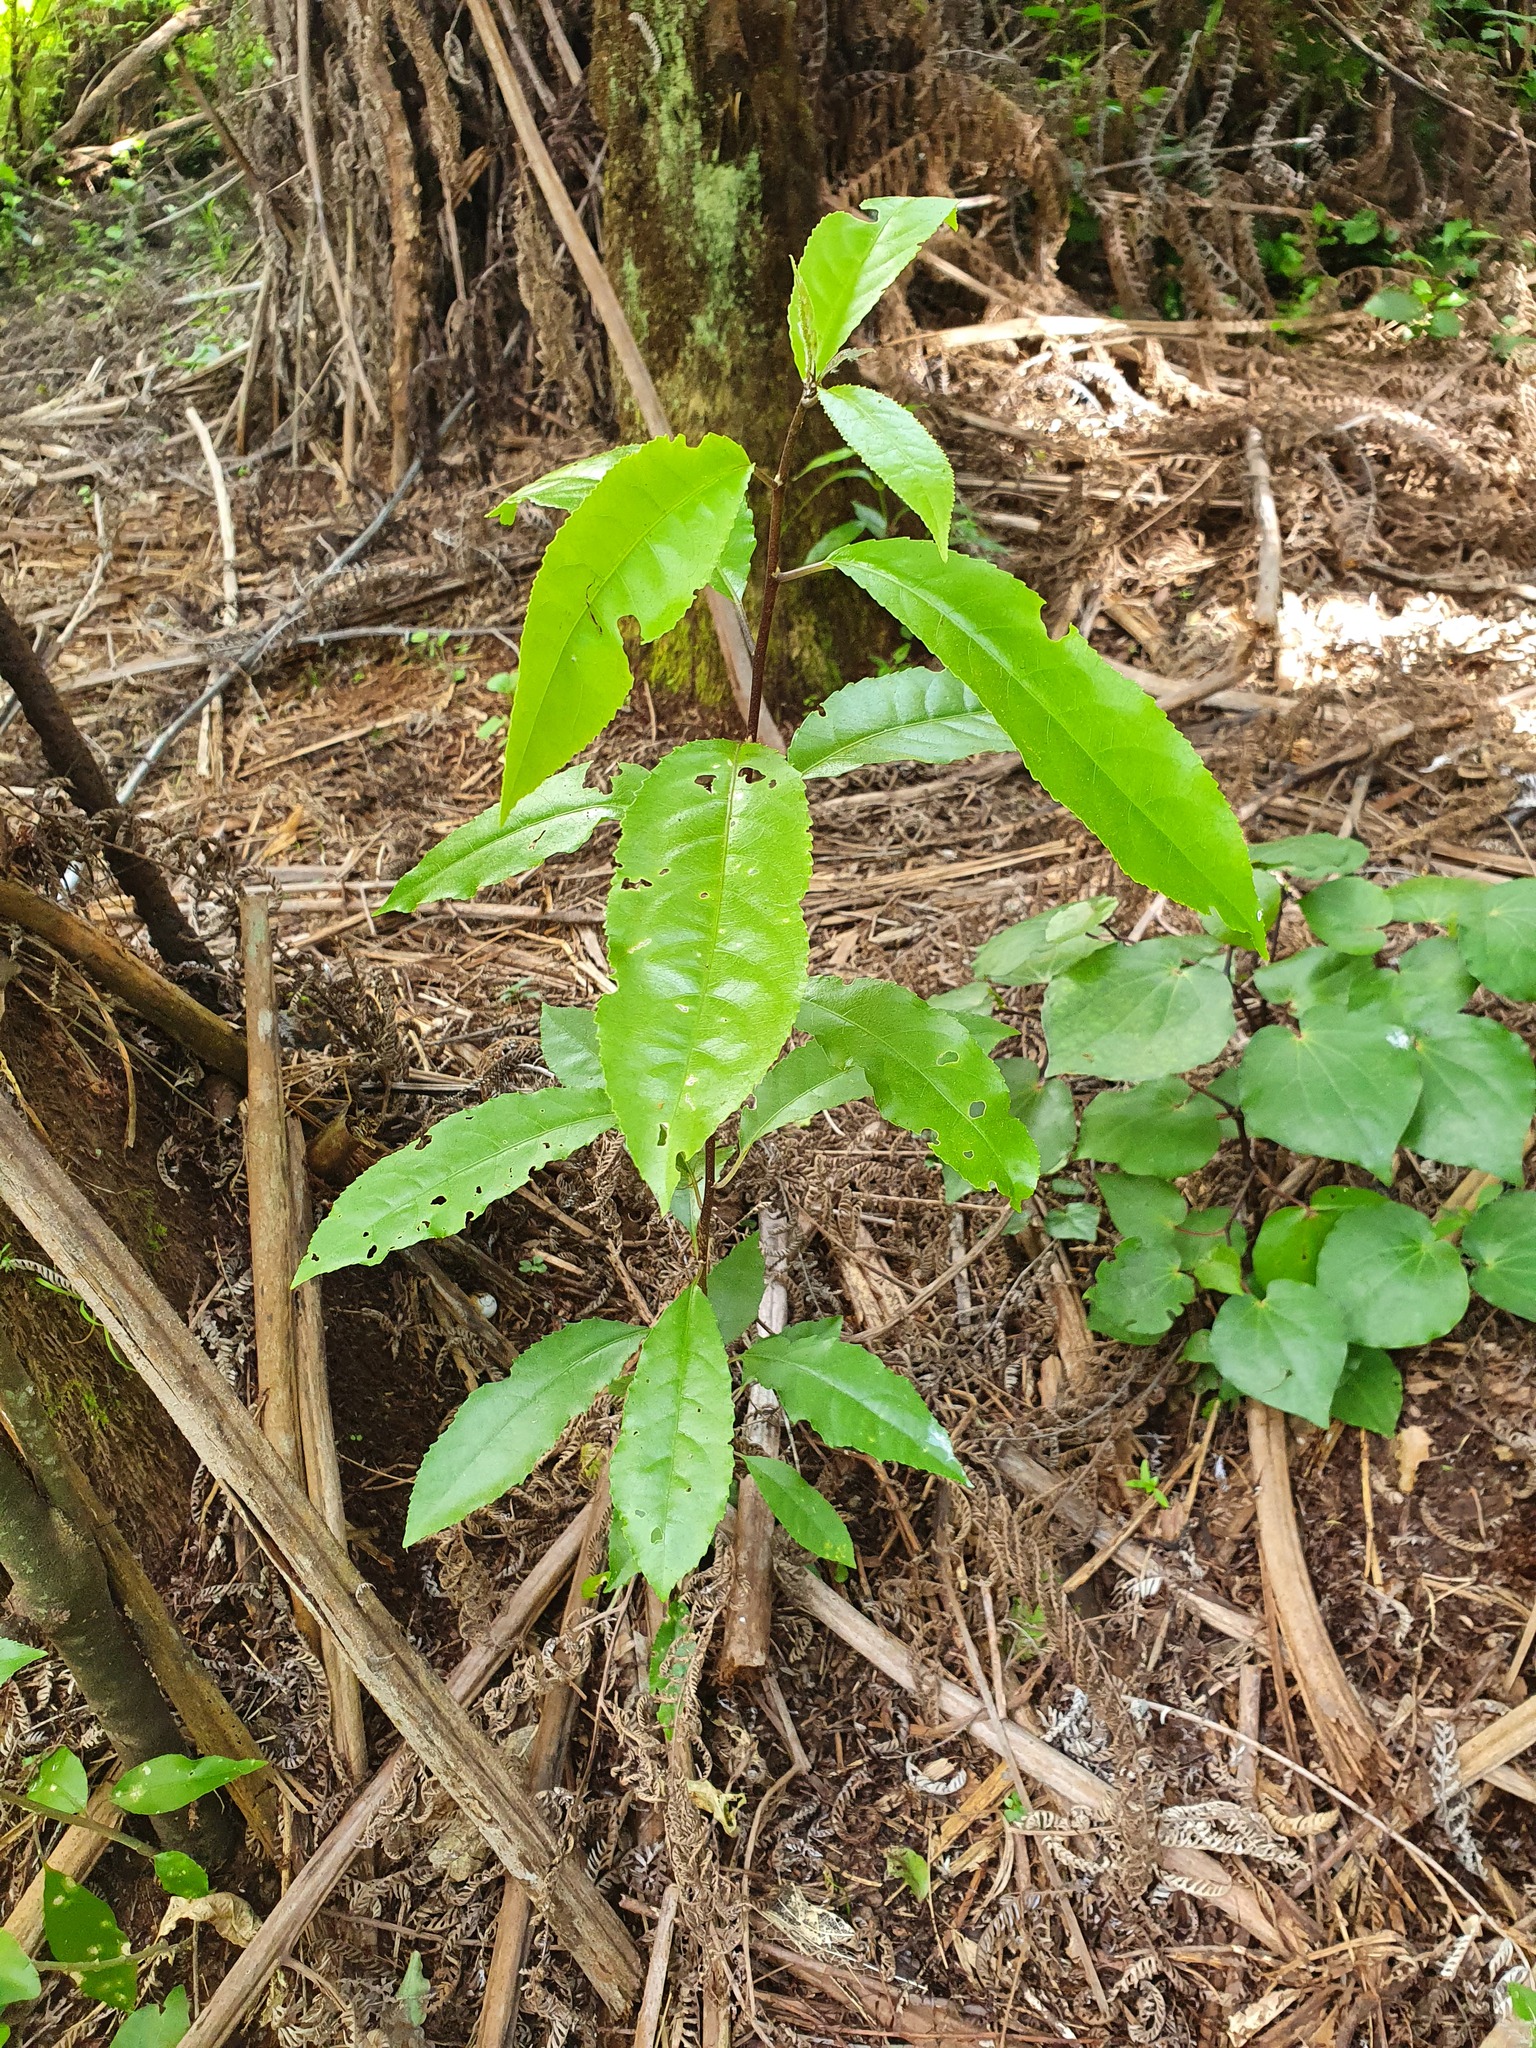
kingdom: Plantae
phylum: Tracheophyta
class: Magnoliopsida
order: Malpighiales
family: Violaceae
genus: Melicytus
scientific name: Melicytus ramiflorus
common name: Mahoe
